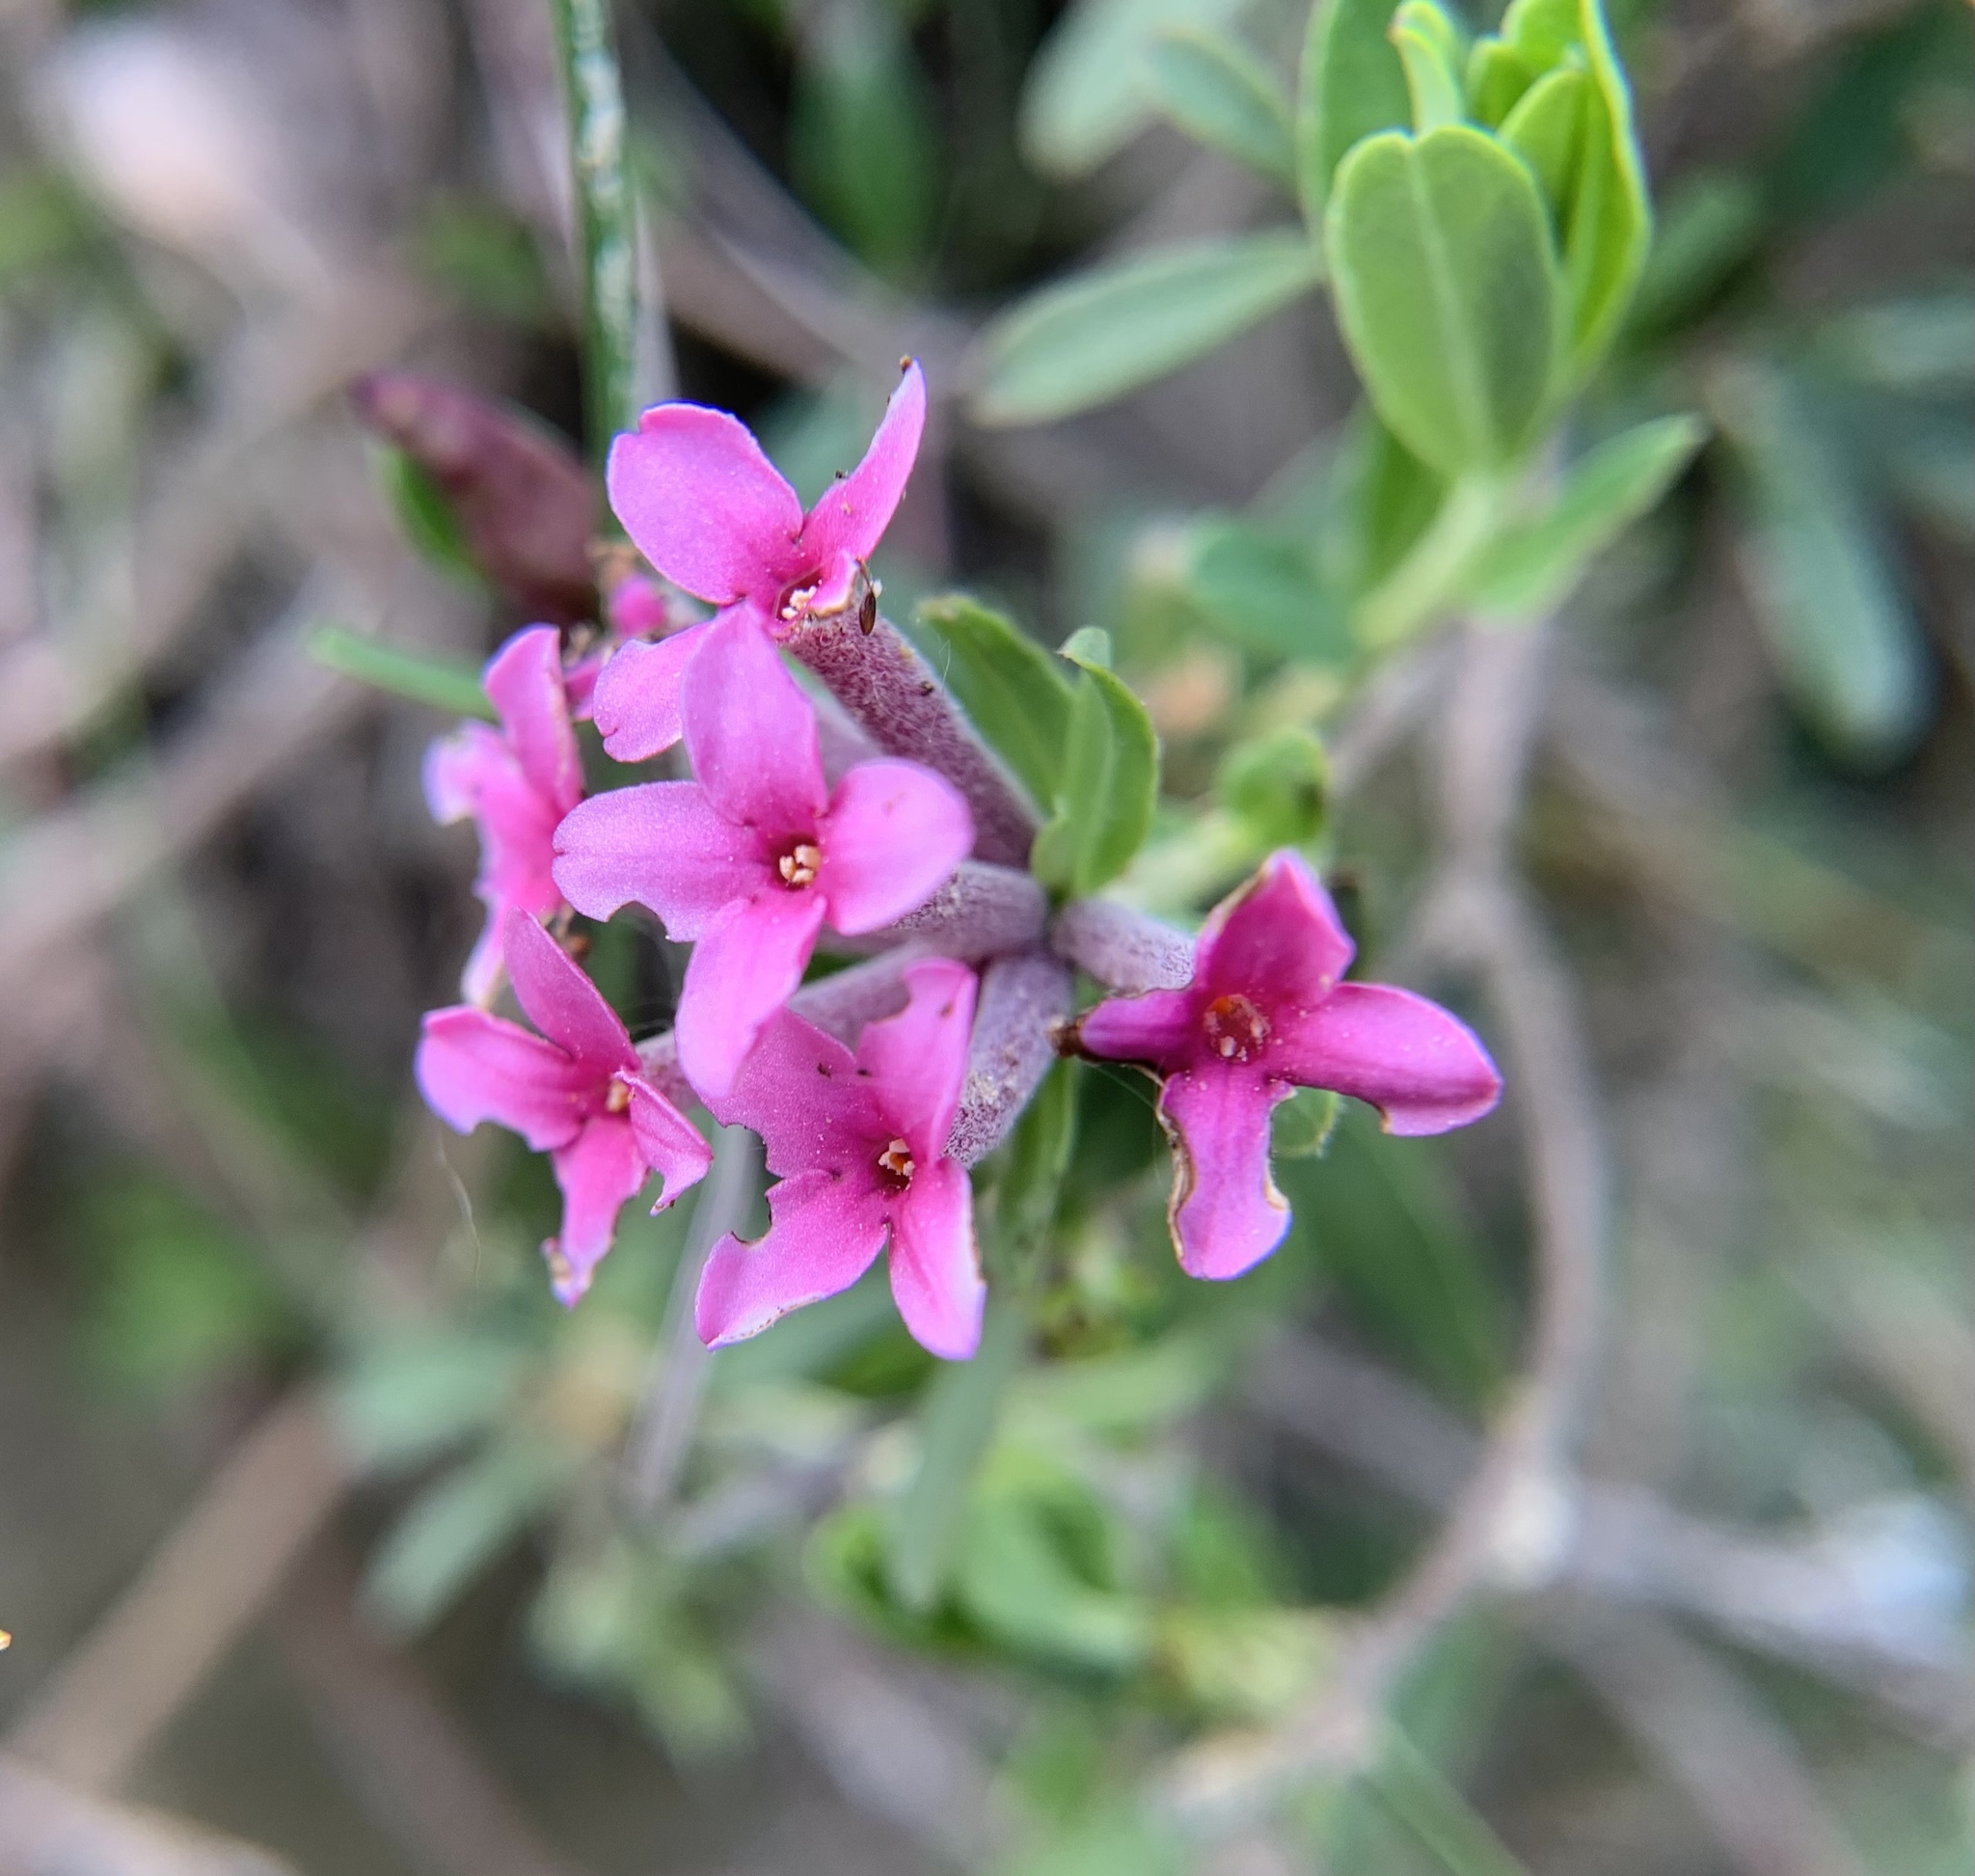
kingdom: Plantae
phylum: Tracheophyta
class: Magnoliopsida
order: Malvales
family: Thymelaeaceae
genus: Daphne
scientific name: Daphne cneorum
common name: Garland-flower
